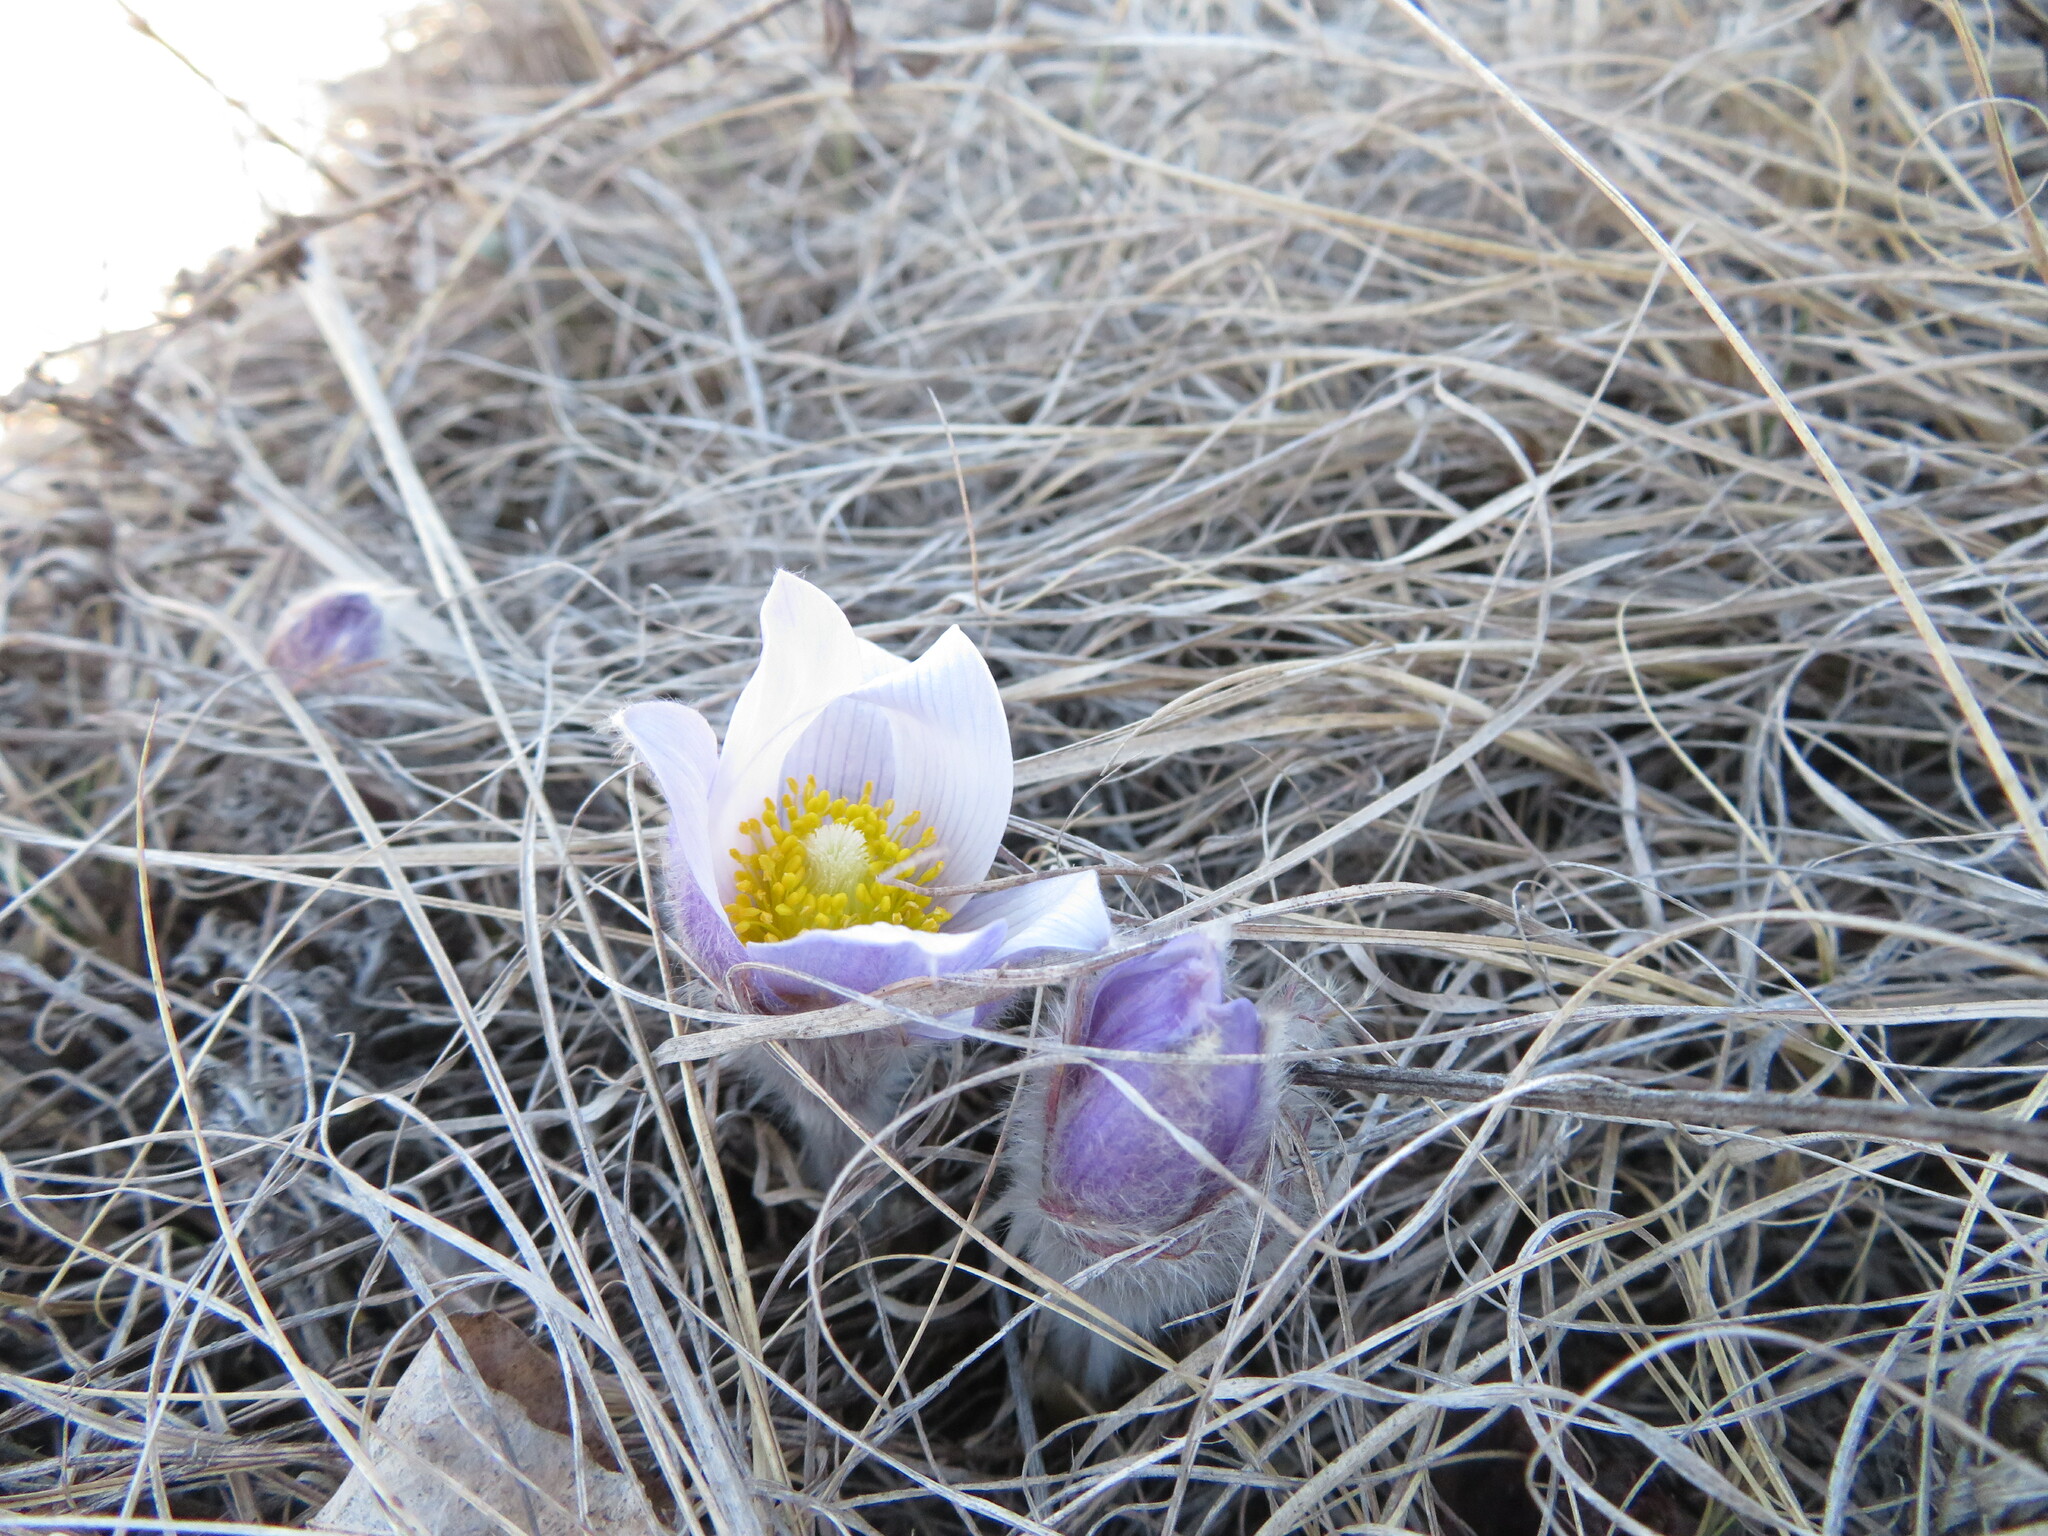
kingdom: Plantae
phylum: Tracheophyta
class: Magnoliopsida
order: Ranunculales
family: Ranunculaceae
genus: Pulsatilla
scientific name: Pulsatilla nuttalliana
